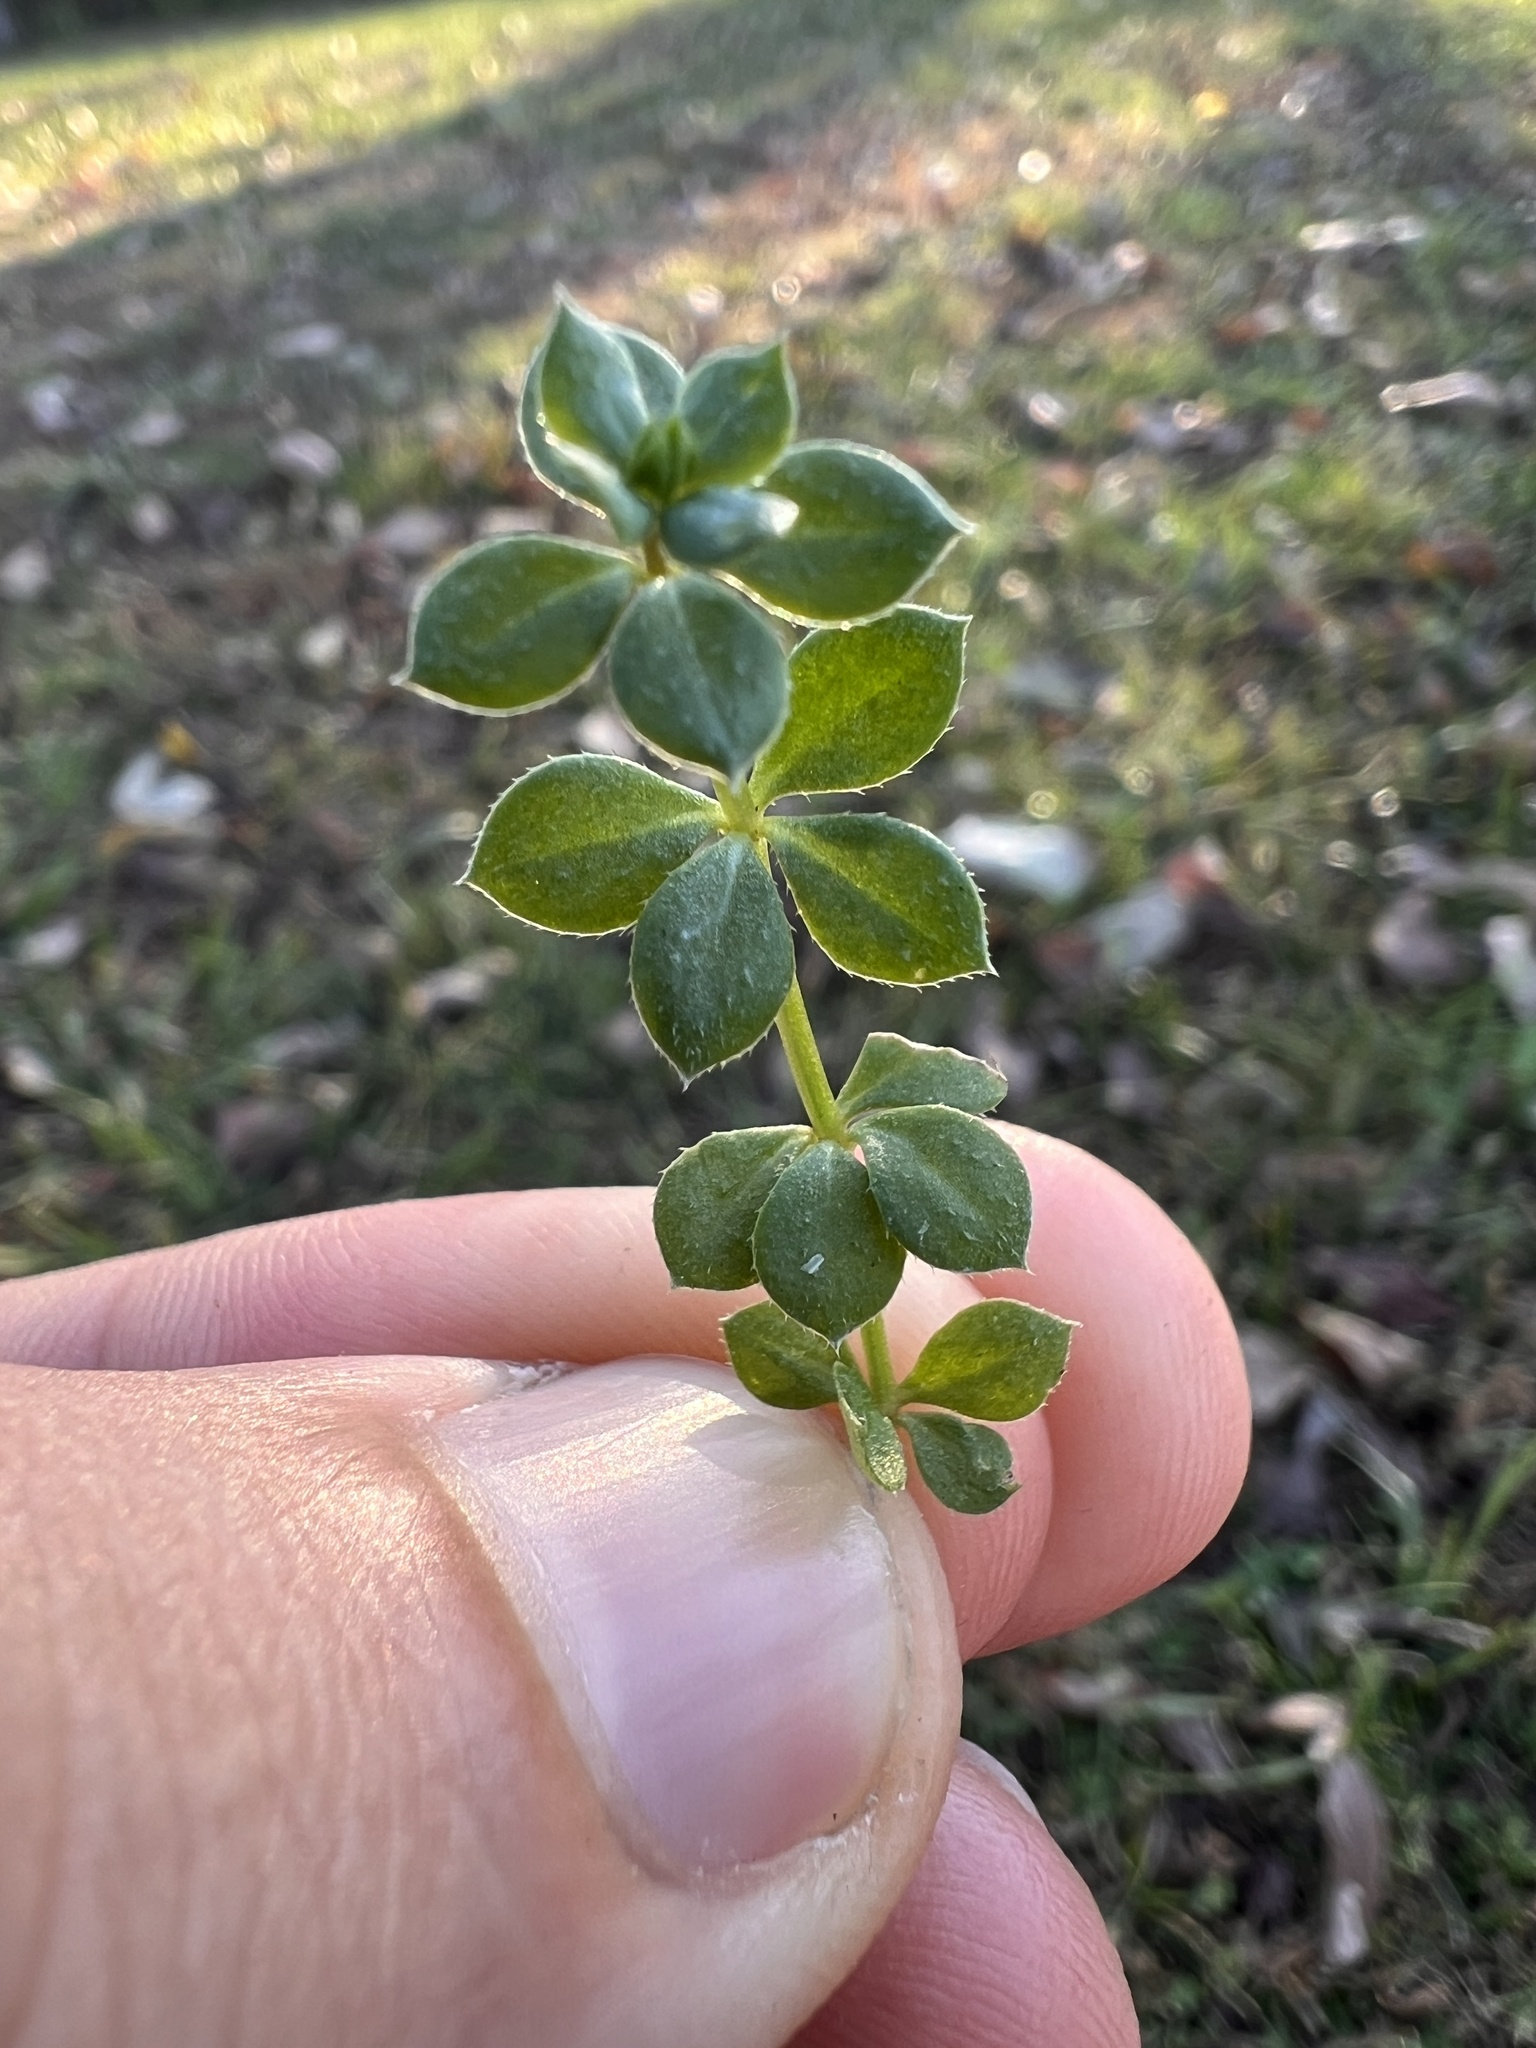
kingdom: Plantae
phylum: Tracheophyta
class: Magnoliopsida
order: Gentianales
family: Rubiaceae
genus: Sherardia
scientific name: Sherardia arvensis
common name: Field madder
